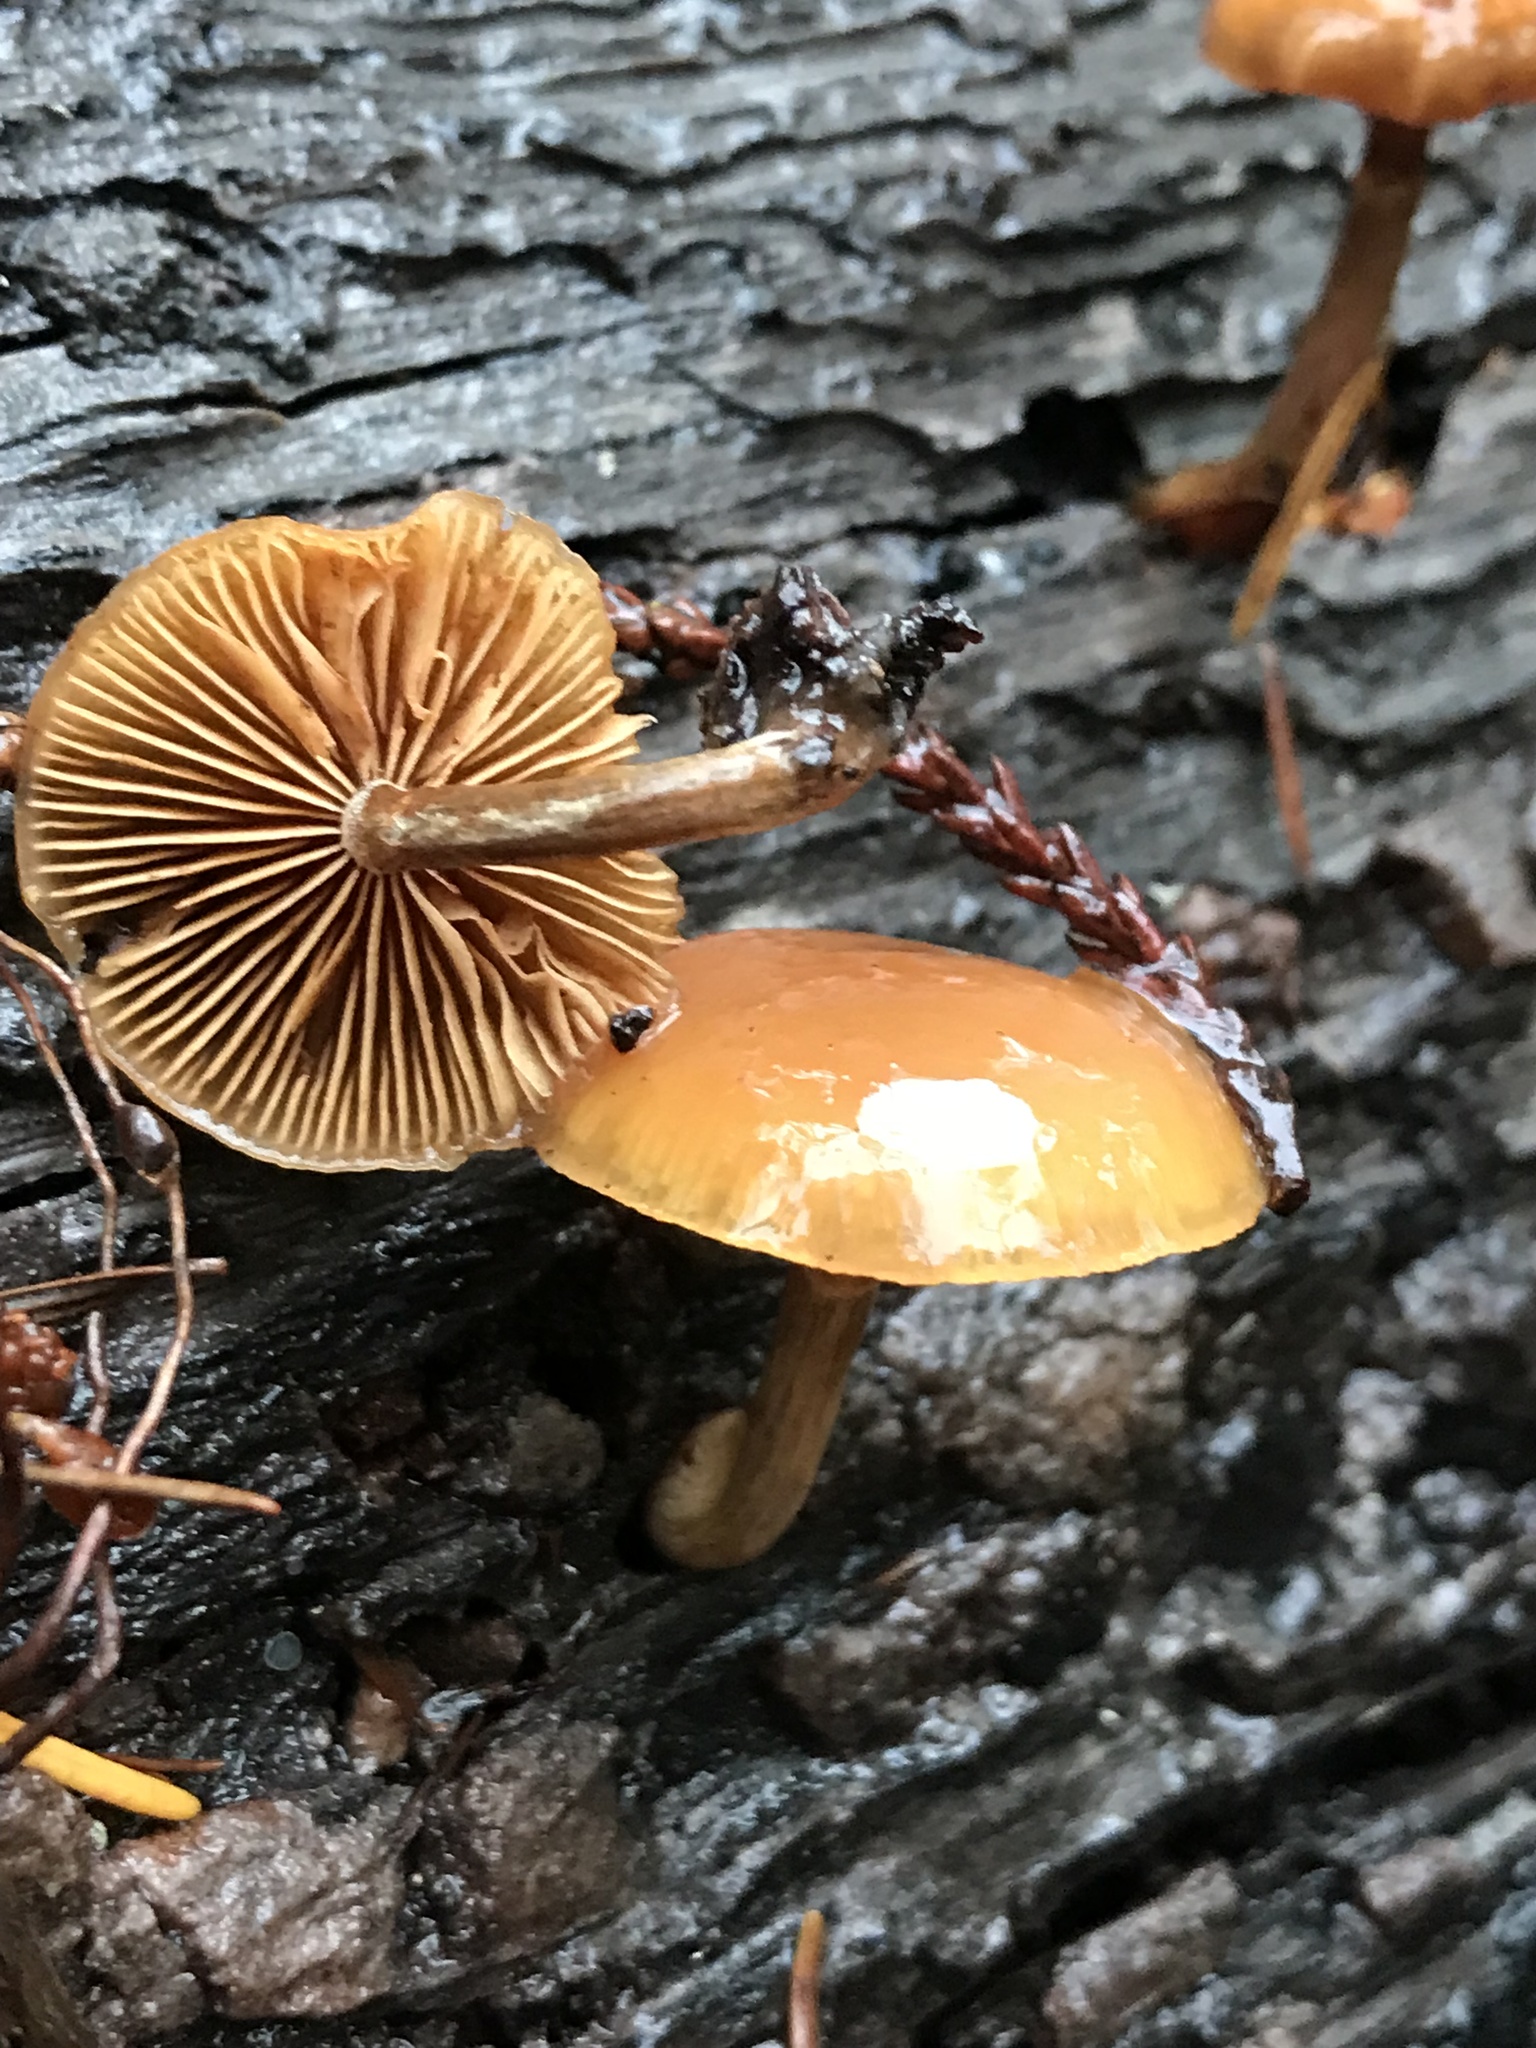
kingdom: Fungi
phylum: Basidiomycota
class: Agaricomycetes
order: Agaricales
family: Hymenogastraceae
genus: Galerina
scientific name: Galerina marginata
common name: Funeral bell
